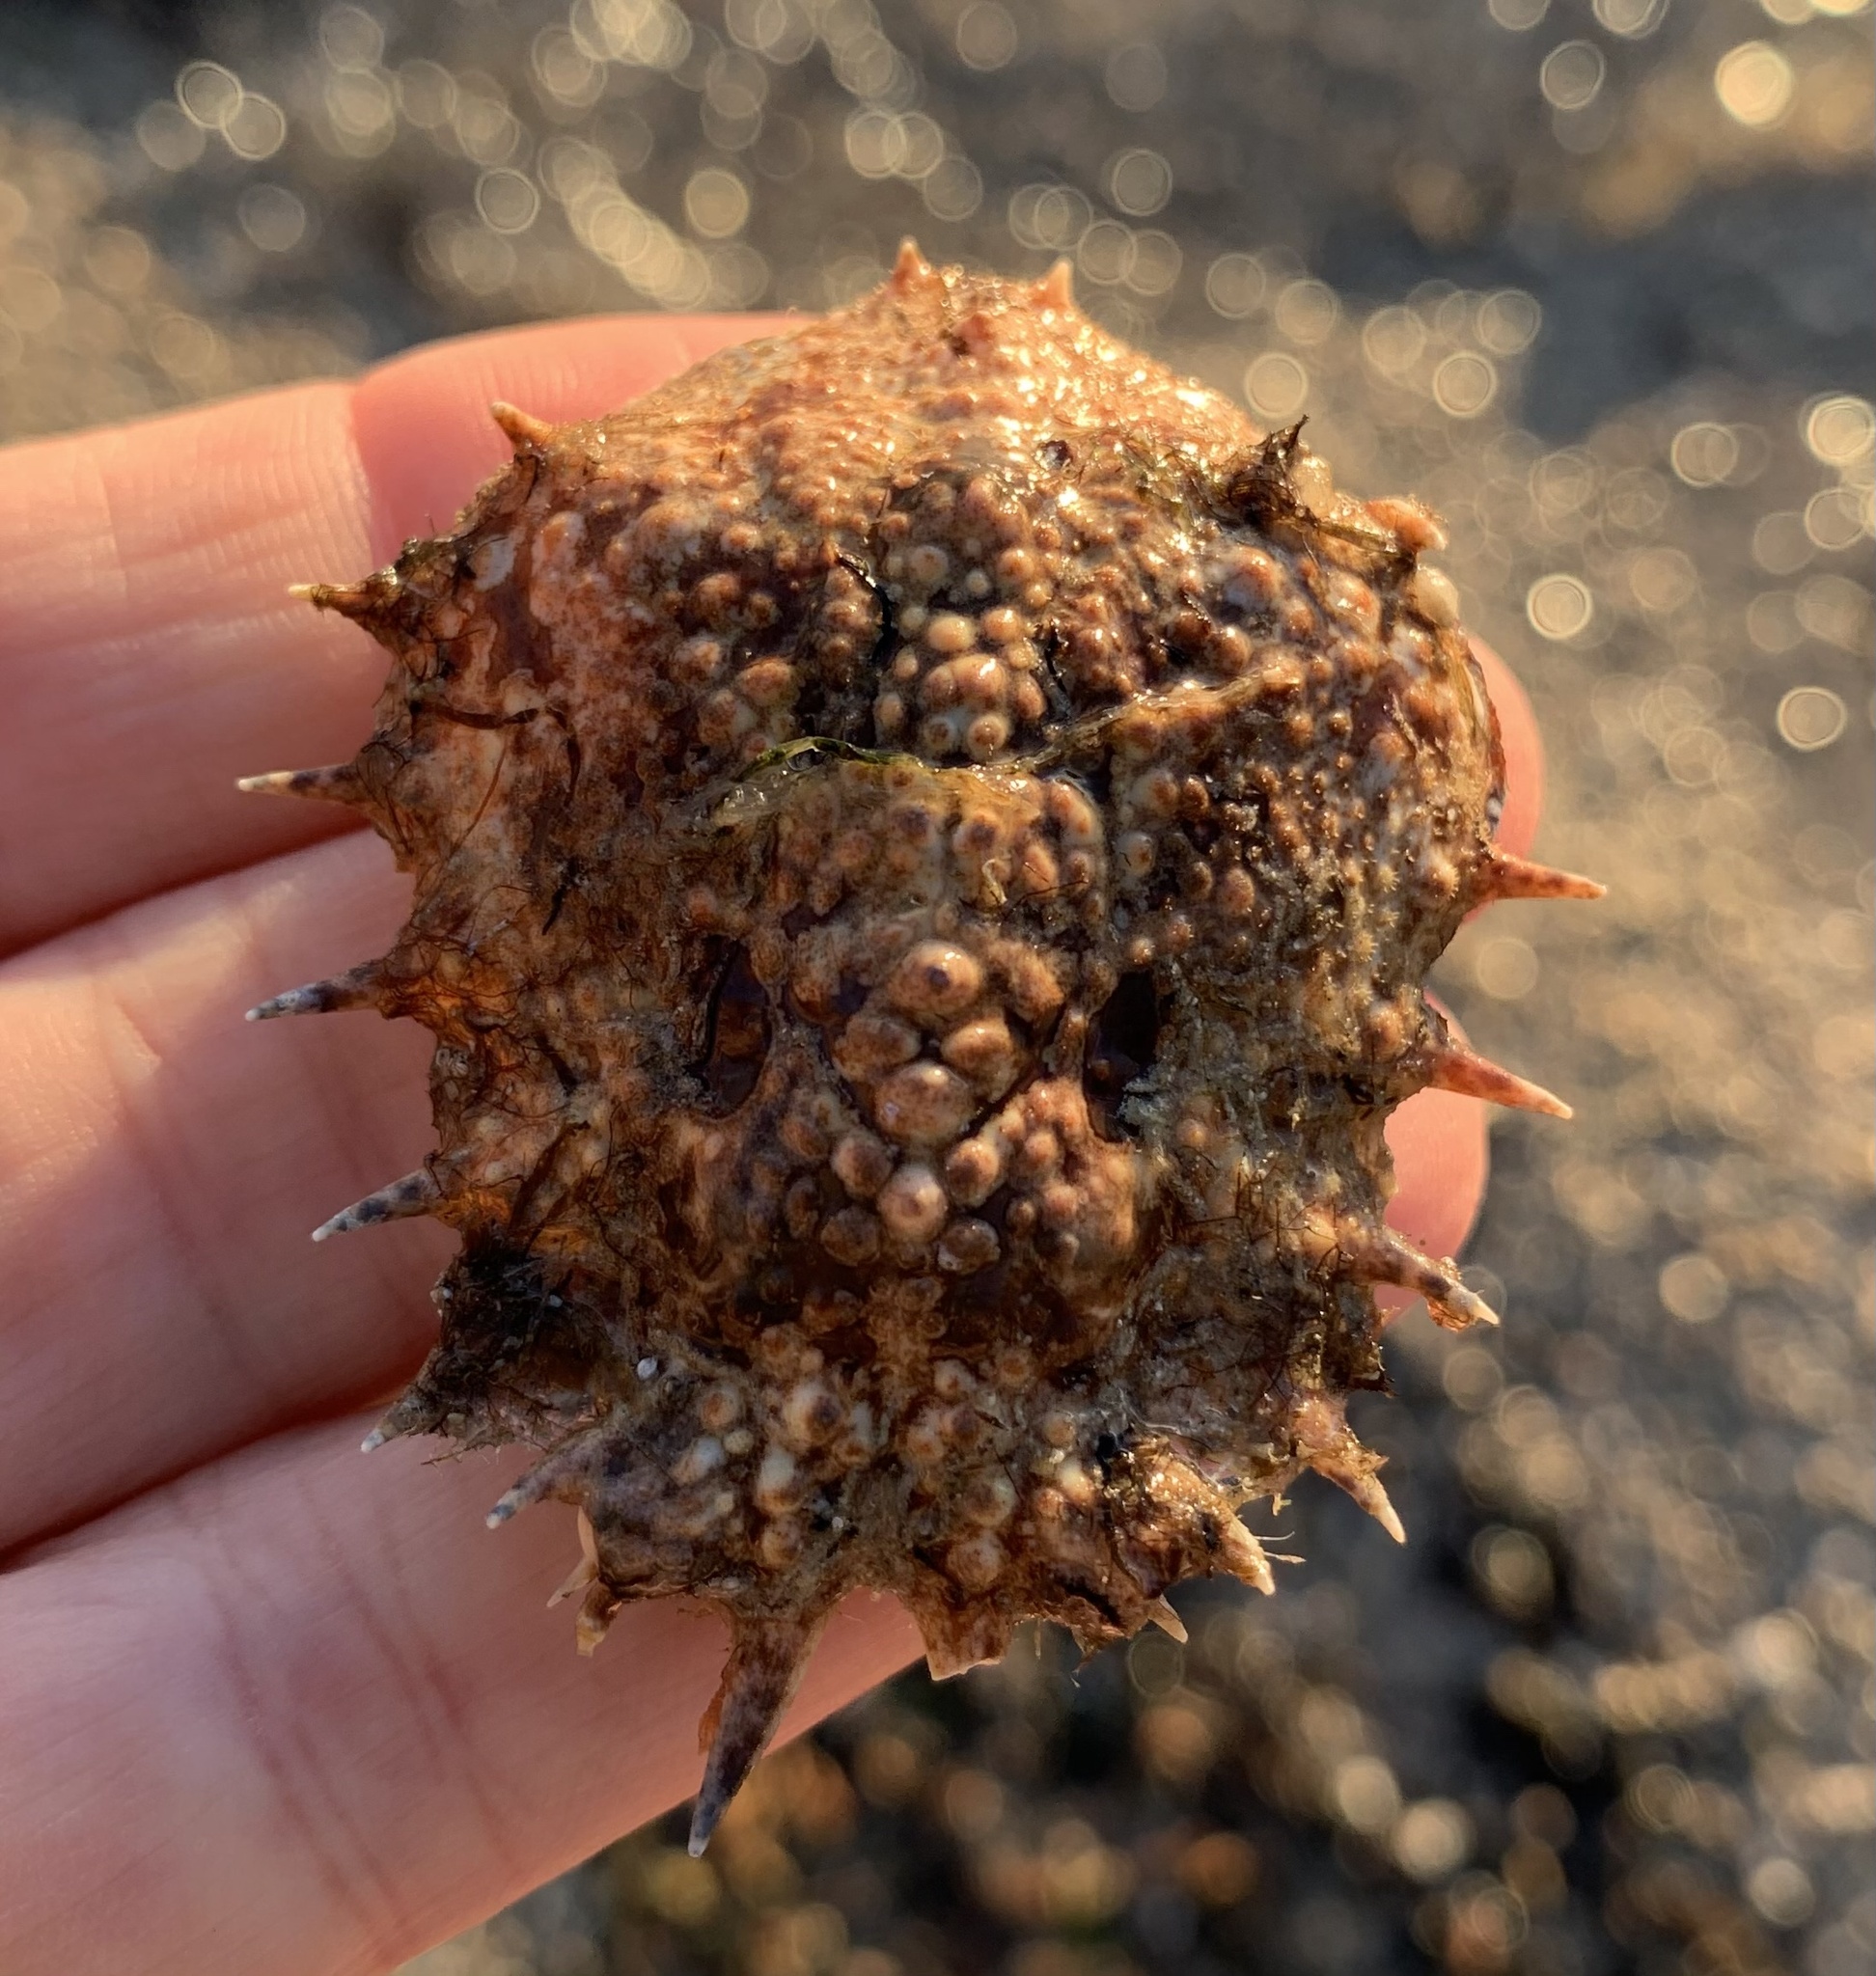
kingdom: Animalia
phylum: Arthropoda
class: Malacostraca
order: Decapoda
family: Majidae
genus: Maja
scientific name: Maja crispata
